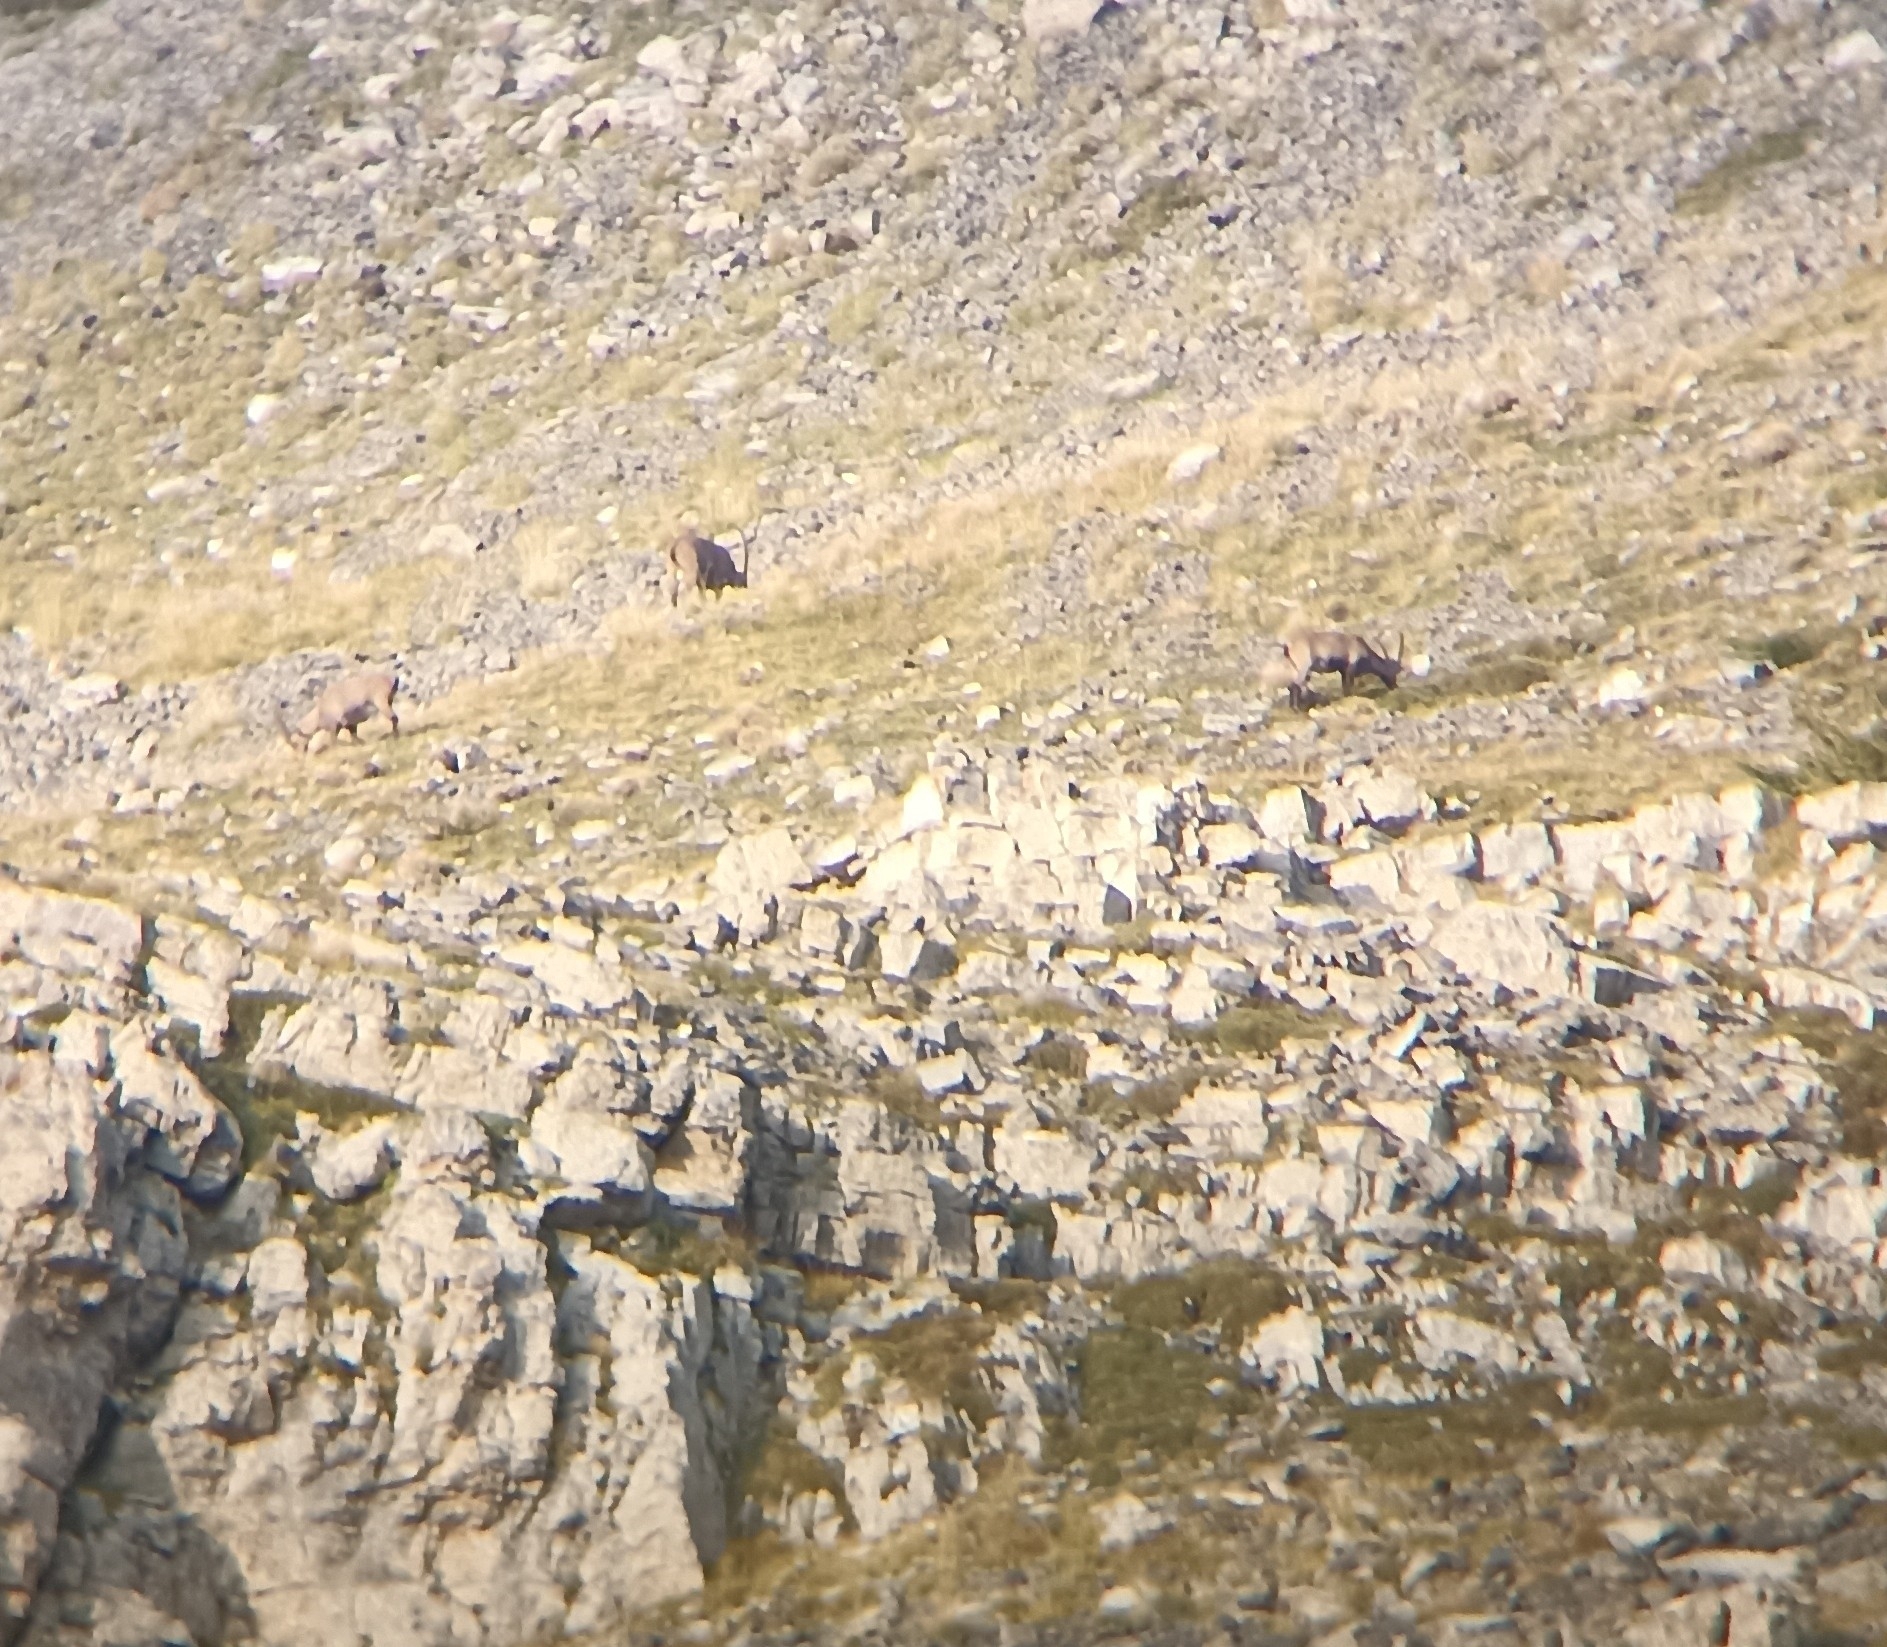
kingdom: Animalia
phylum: Chordata
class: Mammalia
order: Artiodactyla
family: Bovidae
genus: Capra
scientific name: Capra ibex
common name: Alpine ibex
